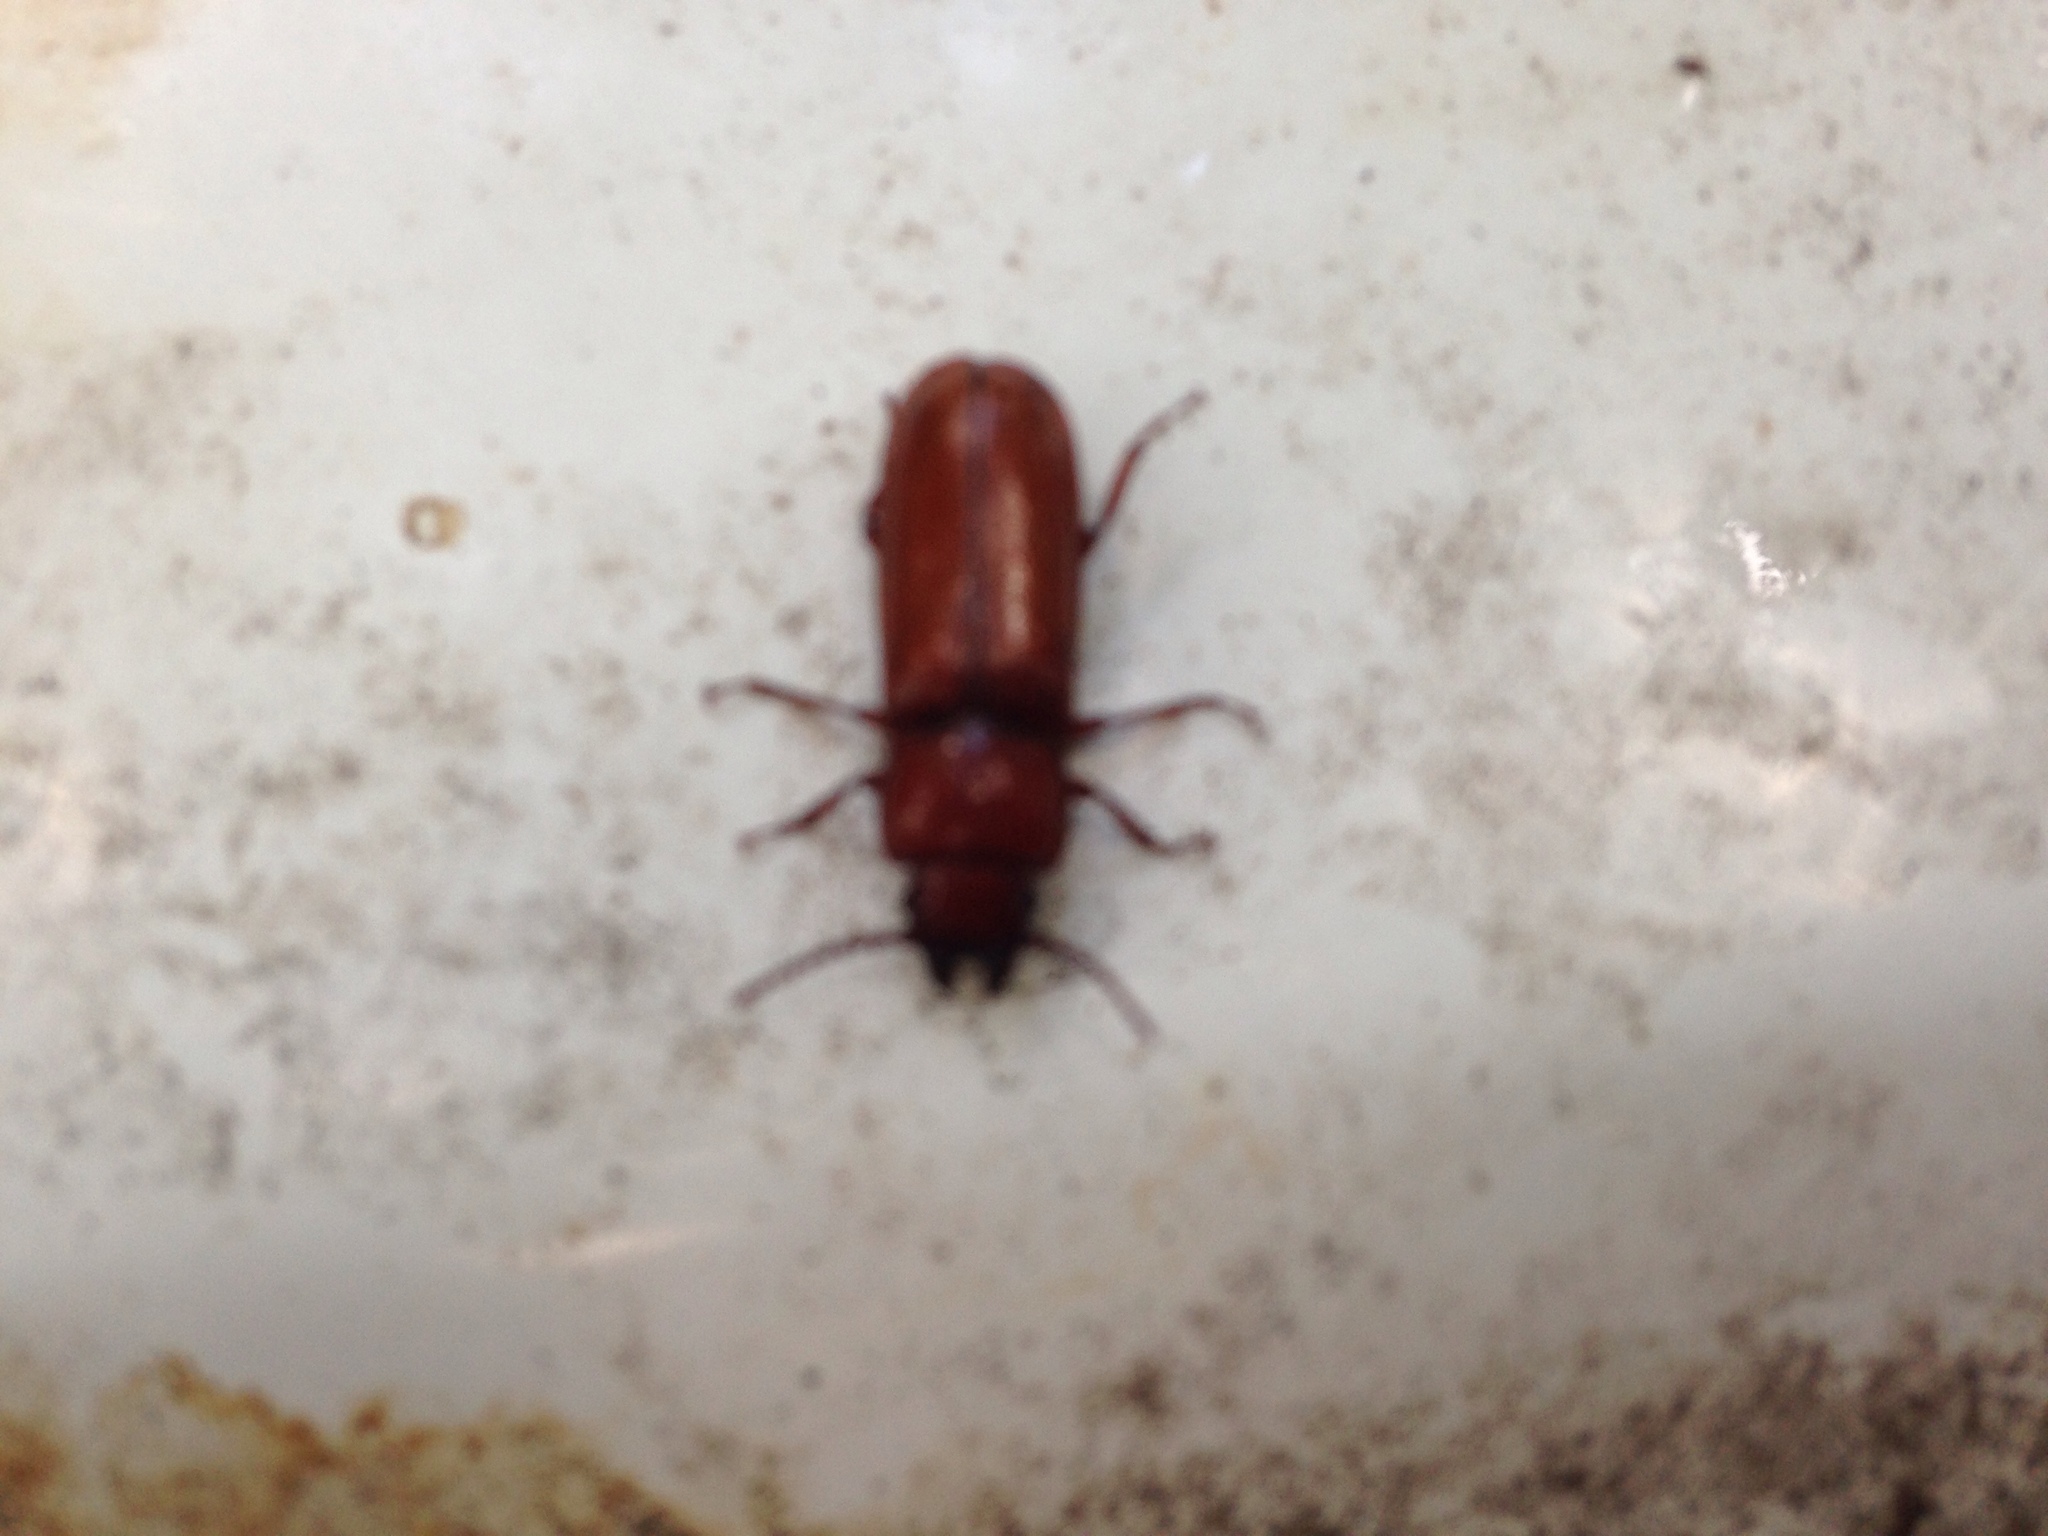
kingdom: Animalia
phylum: Arthropoda
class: Insecta
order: Coleoptera
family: Cerambycidae
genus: Neandra
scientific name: Neandra brunnea
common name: Pole borer
